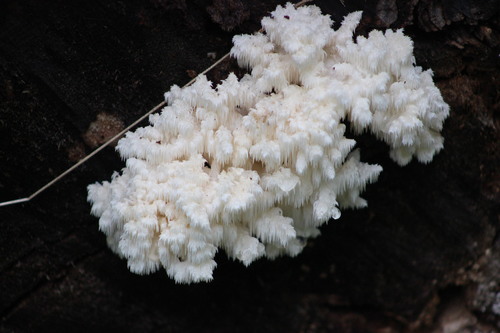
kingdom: Fungi
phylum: Basidiomycota
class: Agaricomycetes
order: Russulales
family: Hericiaceae
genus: Hericium
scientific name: Hericium coralloides
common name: Coral tooth
